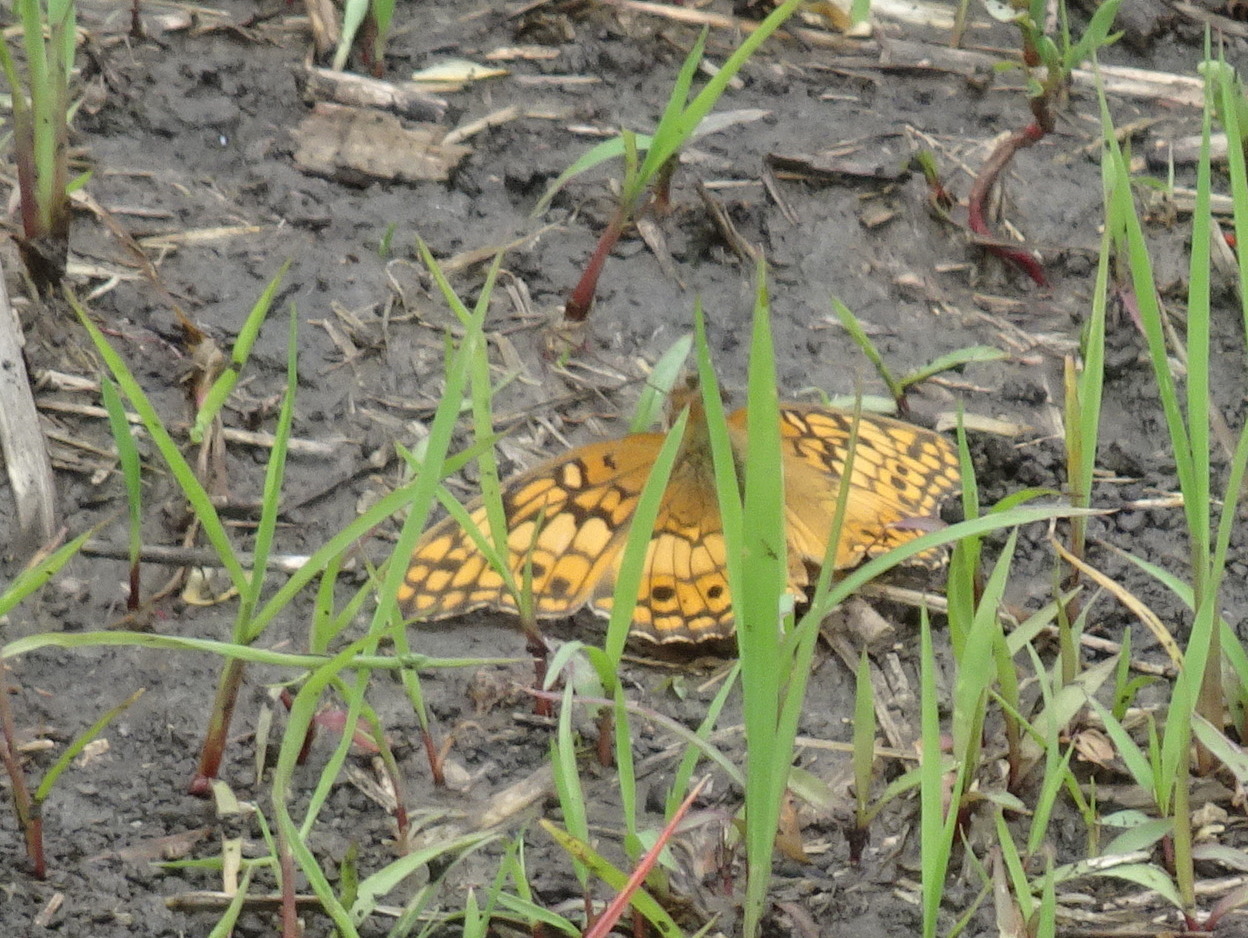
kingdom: Animalia
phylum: Arthropoda
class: Insecta
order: Lepidoptera
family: Nymphalidae
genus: Euptoieta
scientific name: Euptoieta claudia
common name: Variegated fritillary
